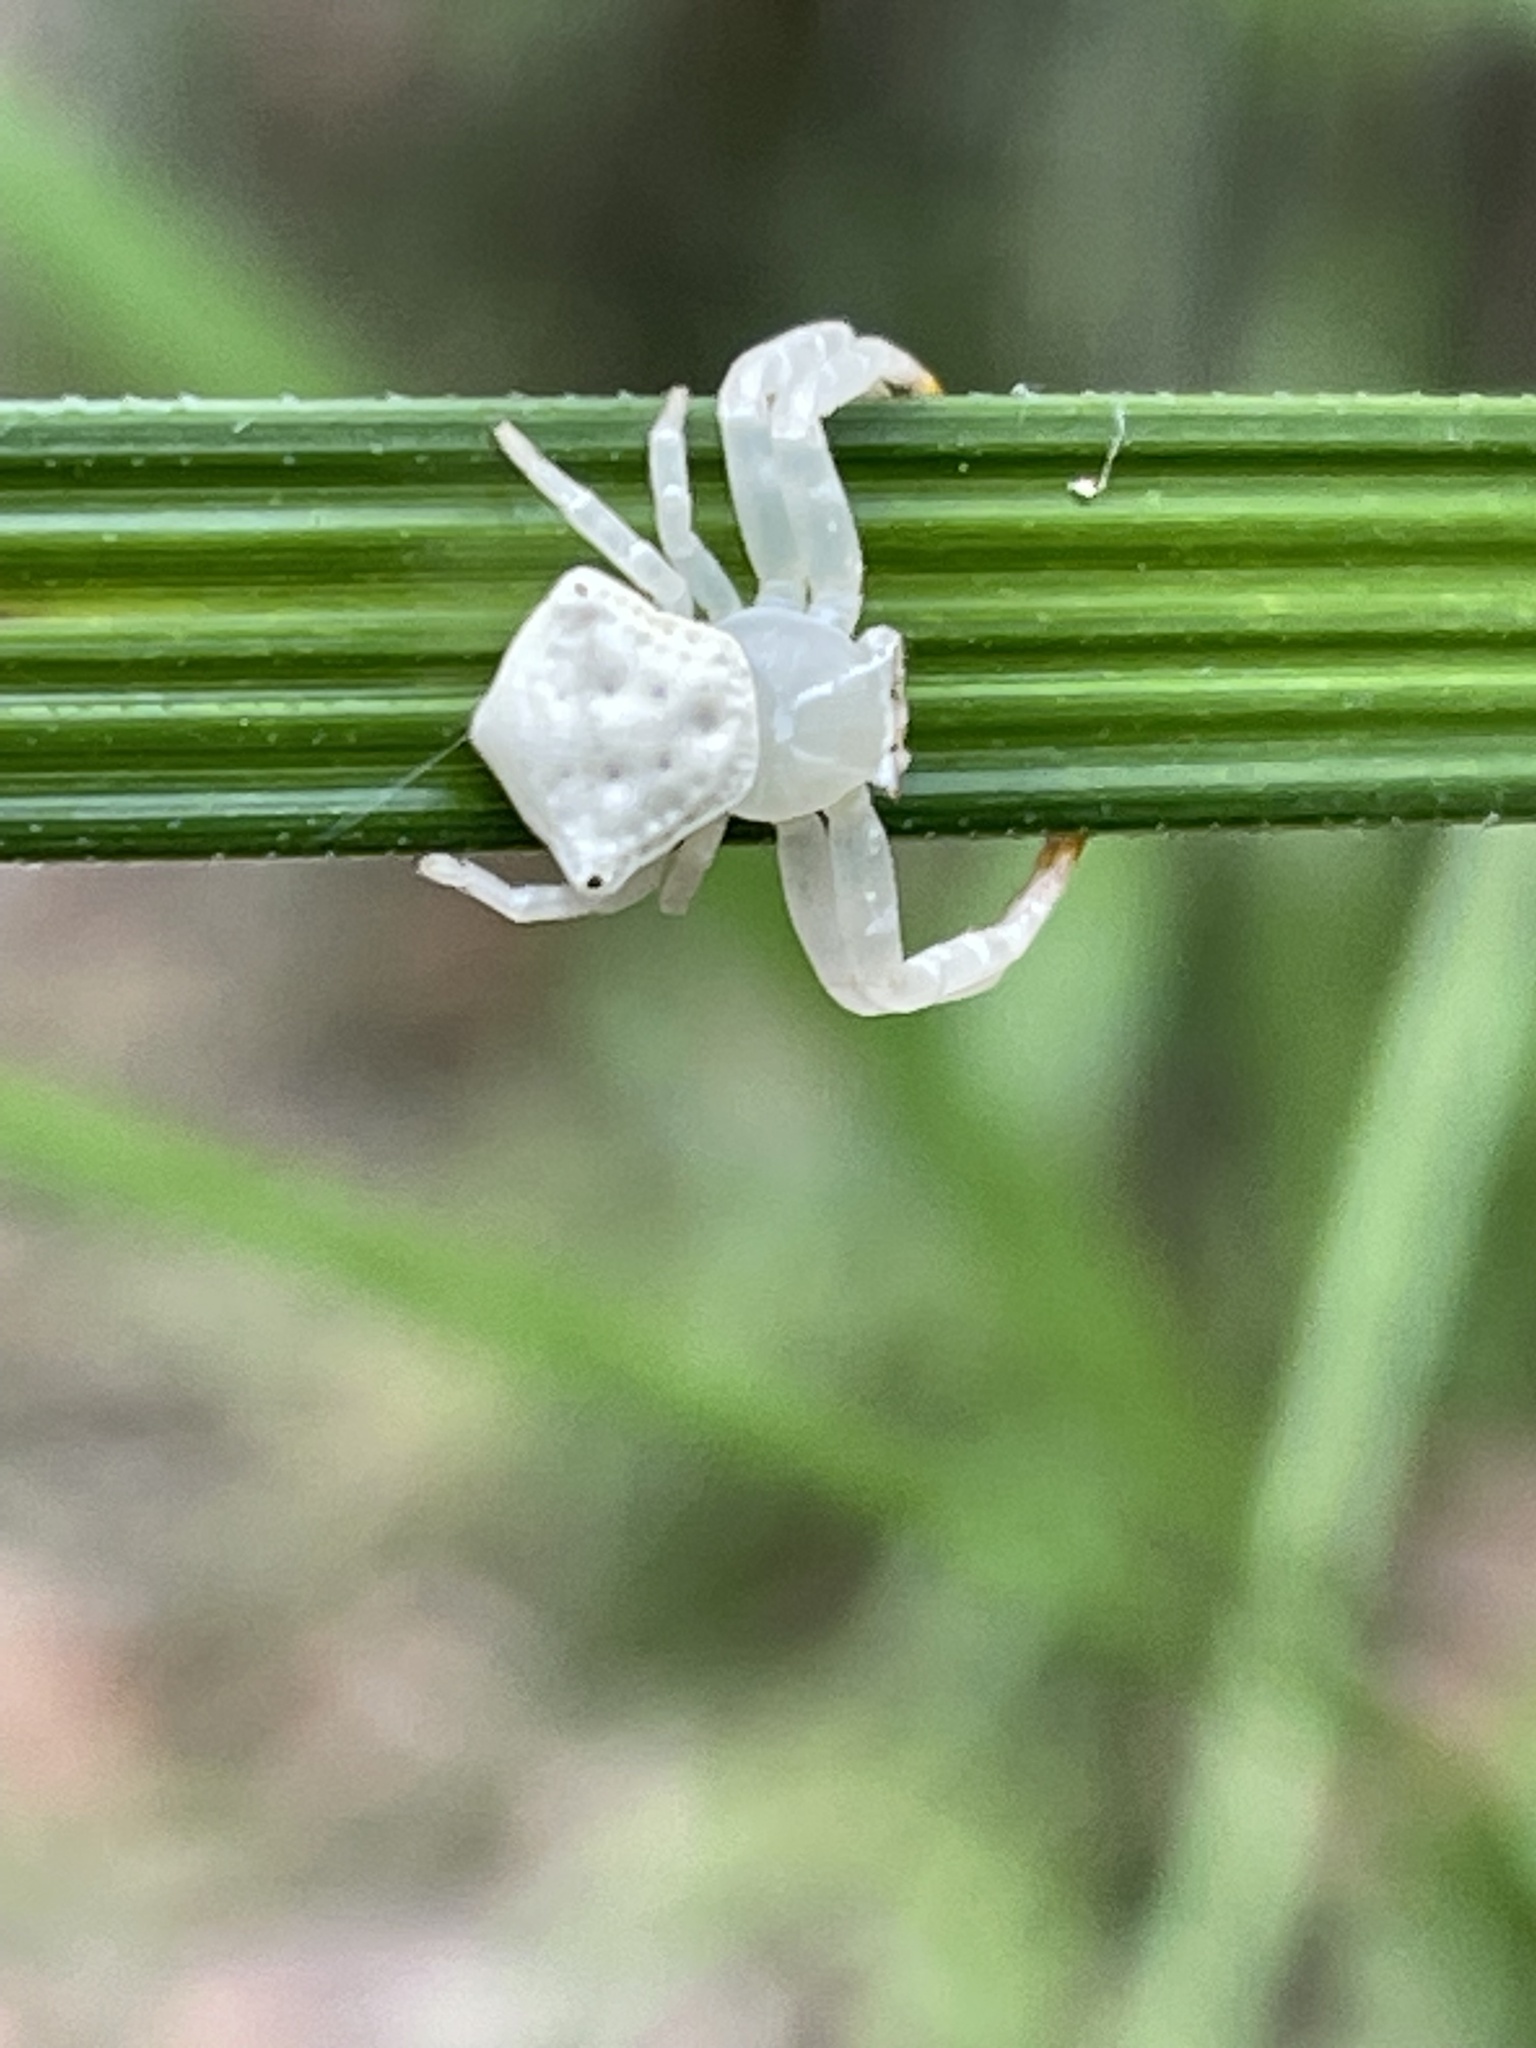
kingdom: Animalia
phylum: Arthropoda
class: Arachnida
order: Araneae
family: Thomisidae
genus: Thomisus
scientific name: Thomisus spectabilis
